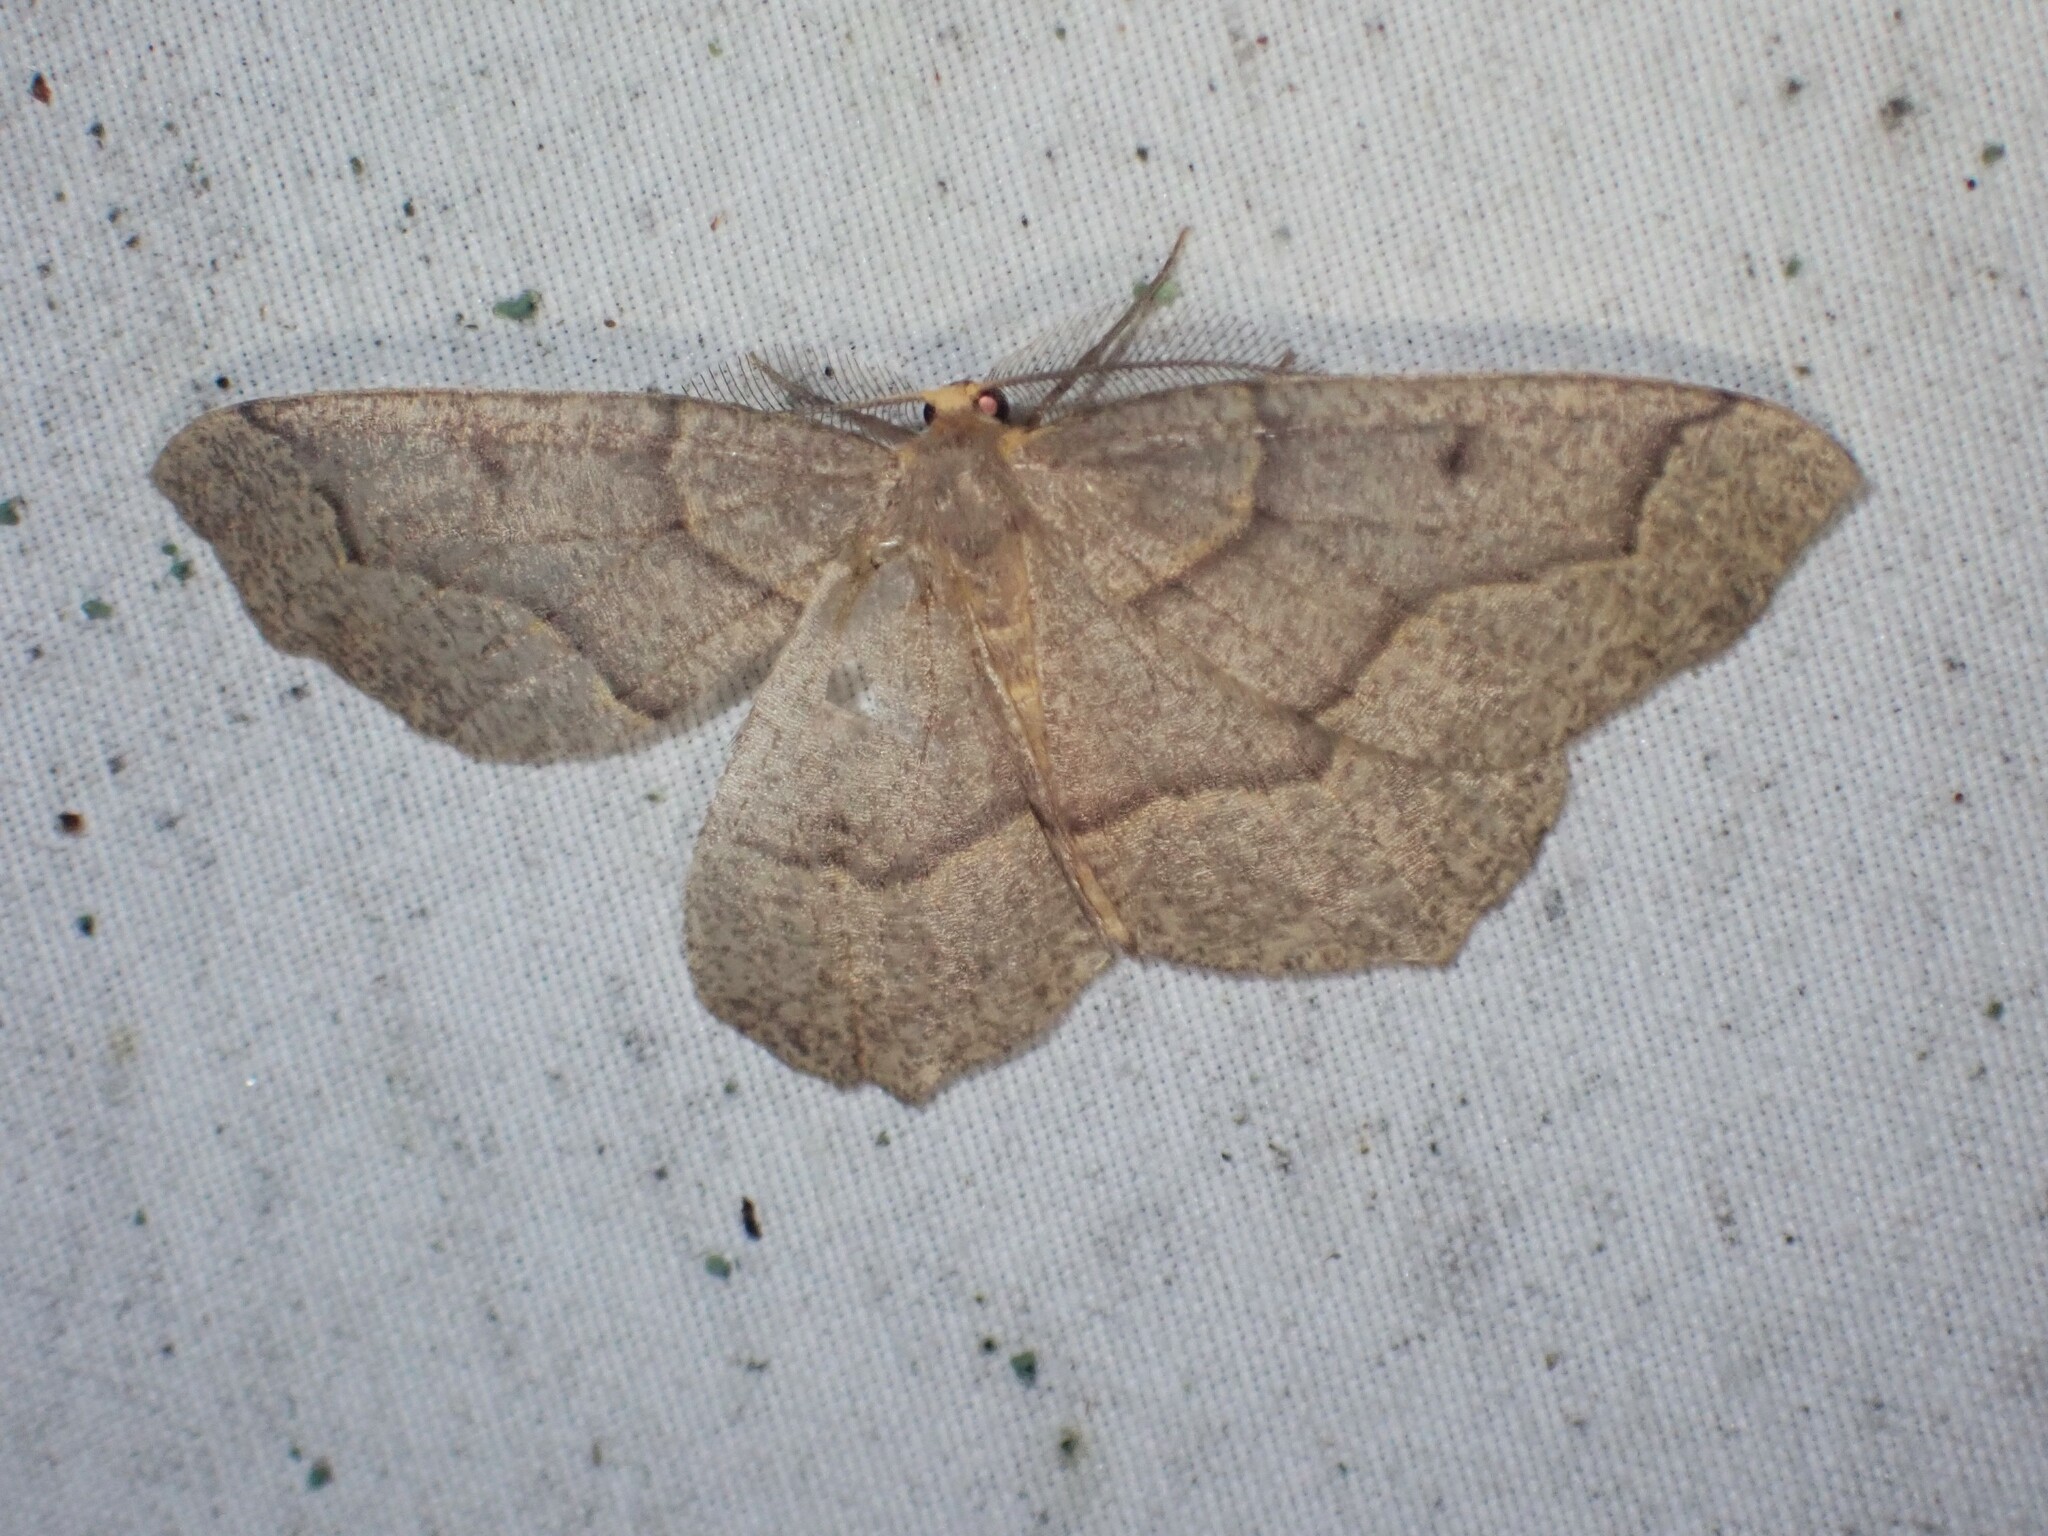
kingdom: Animalia
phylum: Arthropoda
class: Insecta
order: Lepidoptera
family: Geometridae
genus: Lambdina
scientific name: Lambdina fiscellaria
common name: Hemlock looper
